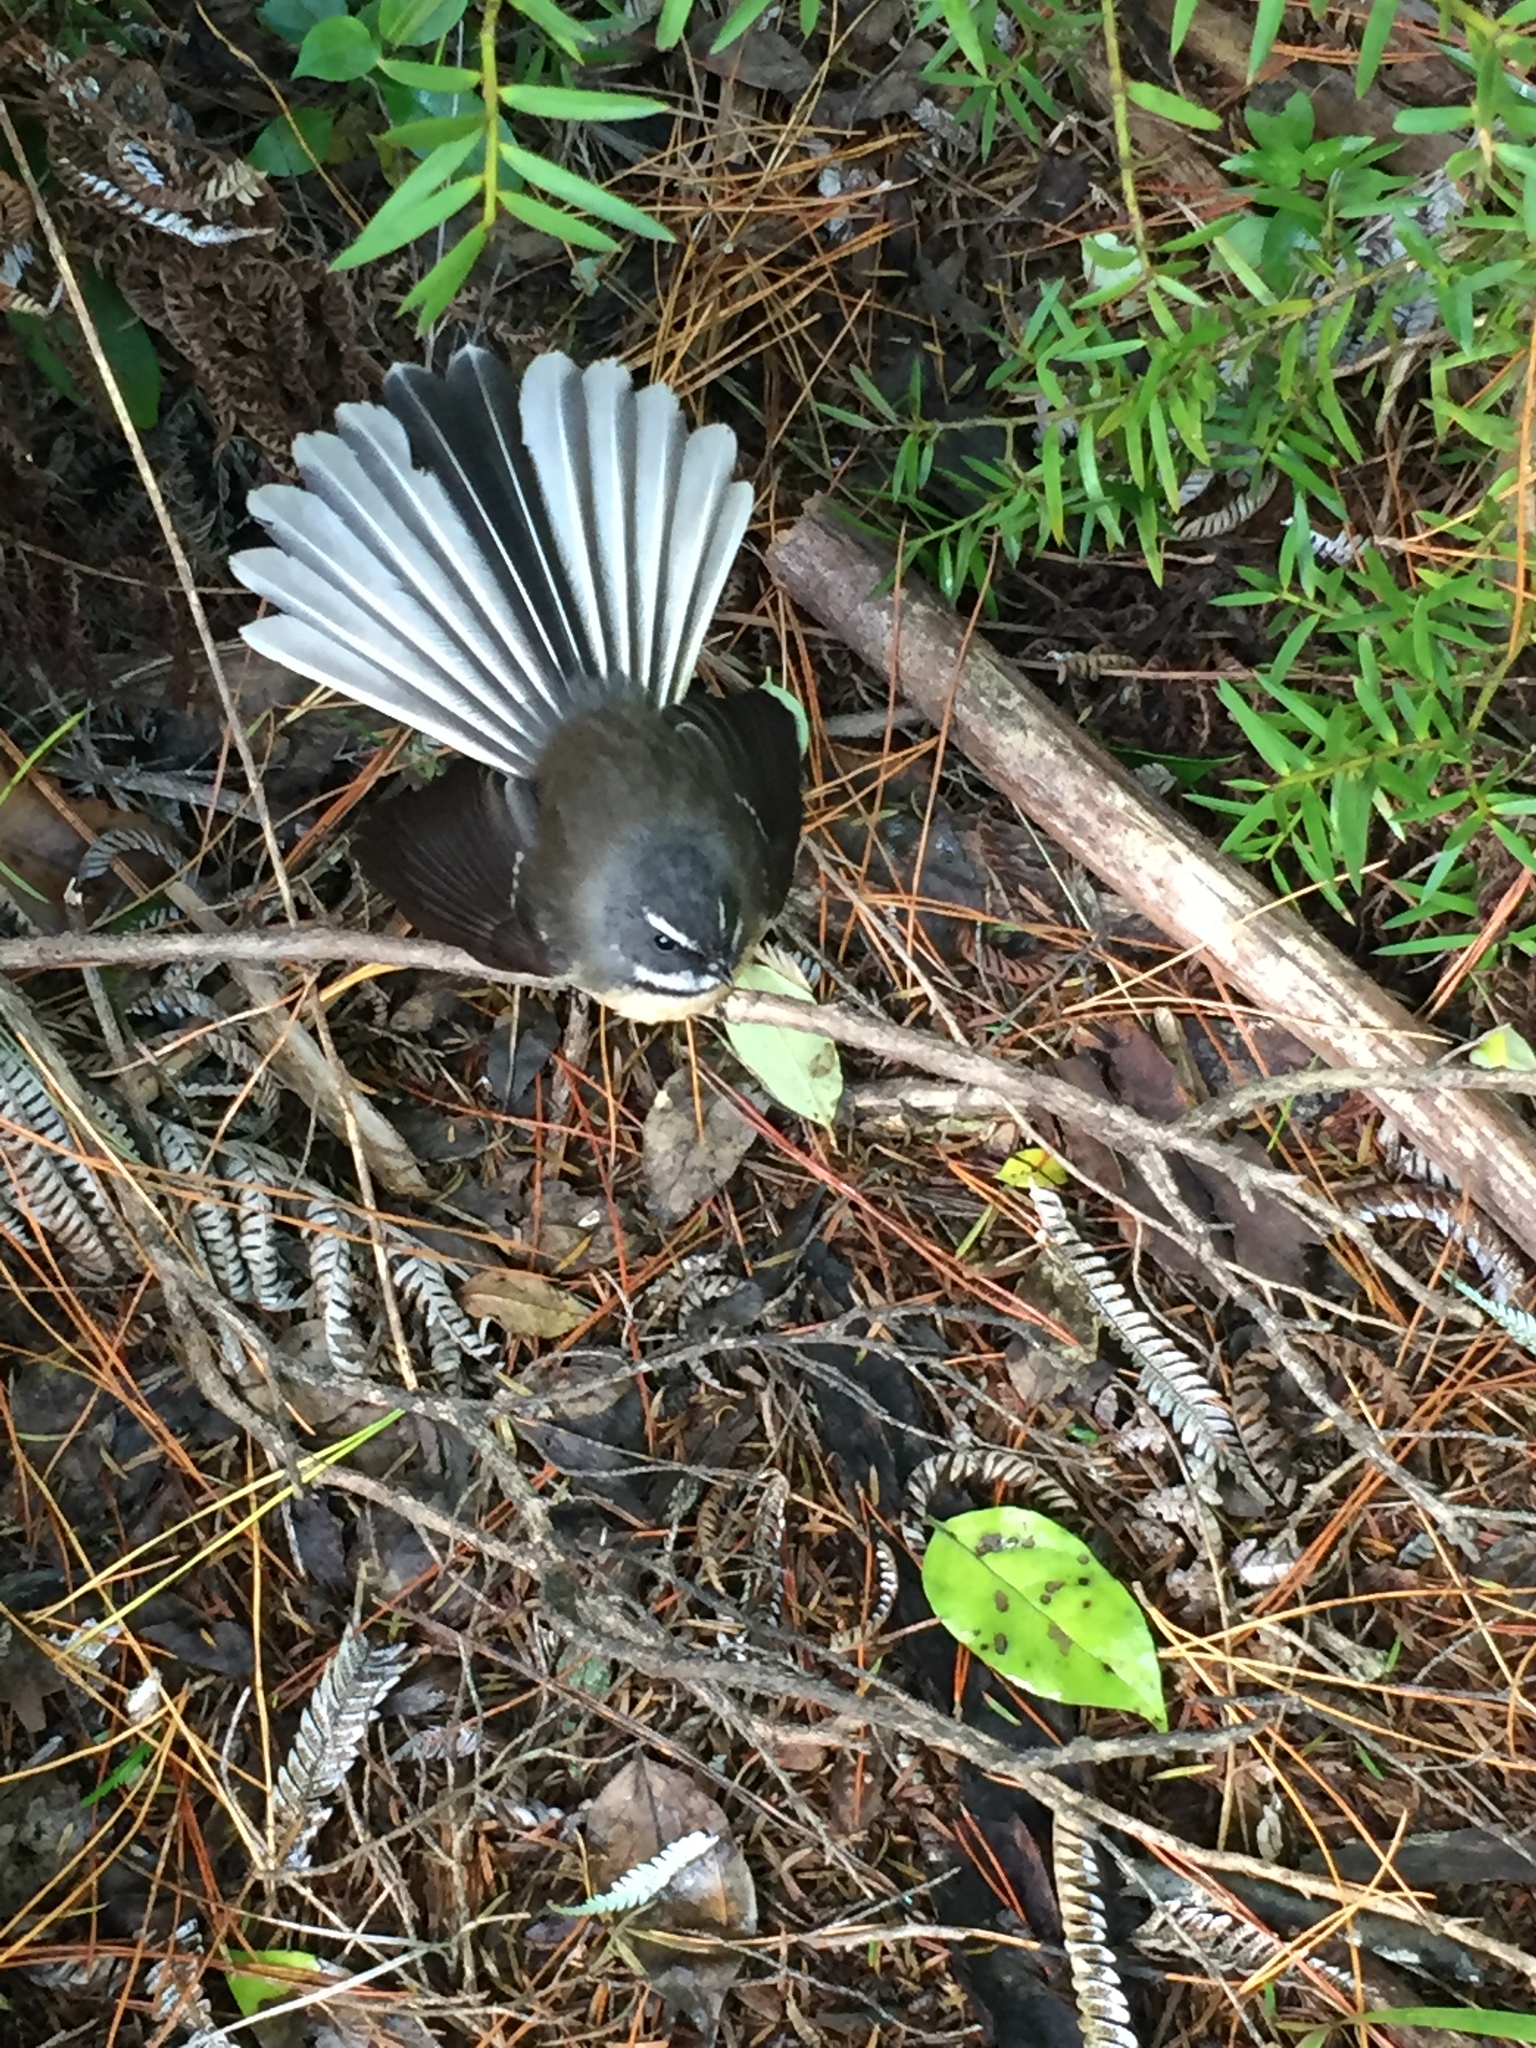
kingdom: Animalia
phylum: Chordata
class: Aves
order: Passeriformes
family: Rhipiduridae
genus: Rhipidura
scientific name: Rhipidura fuliginosa
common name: New zealand fantail
